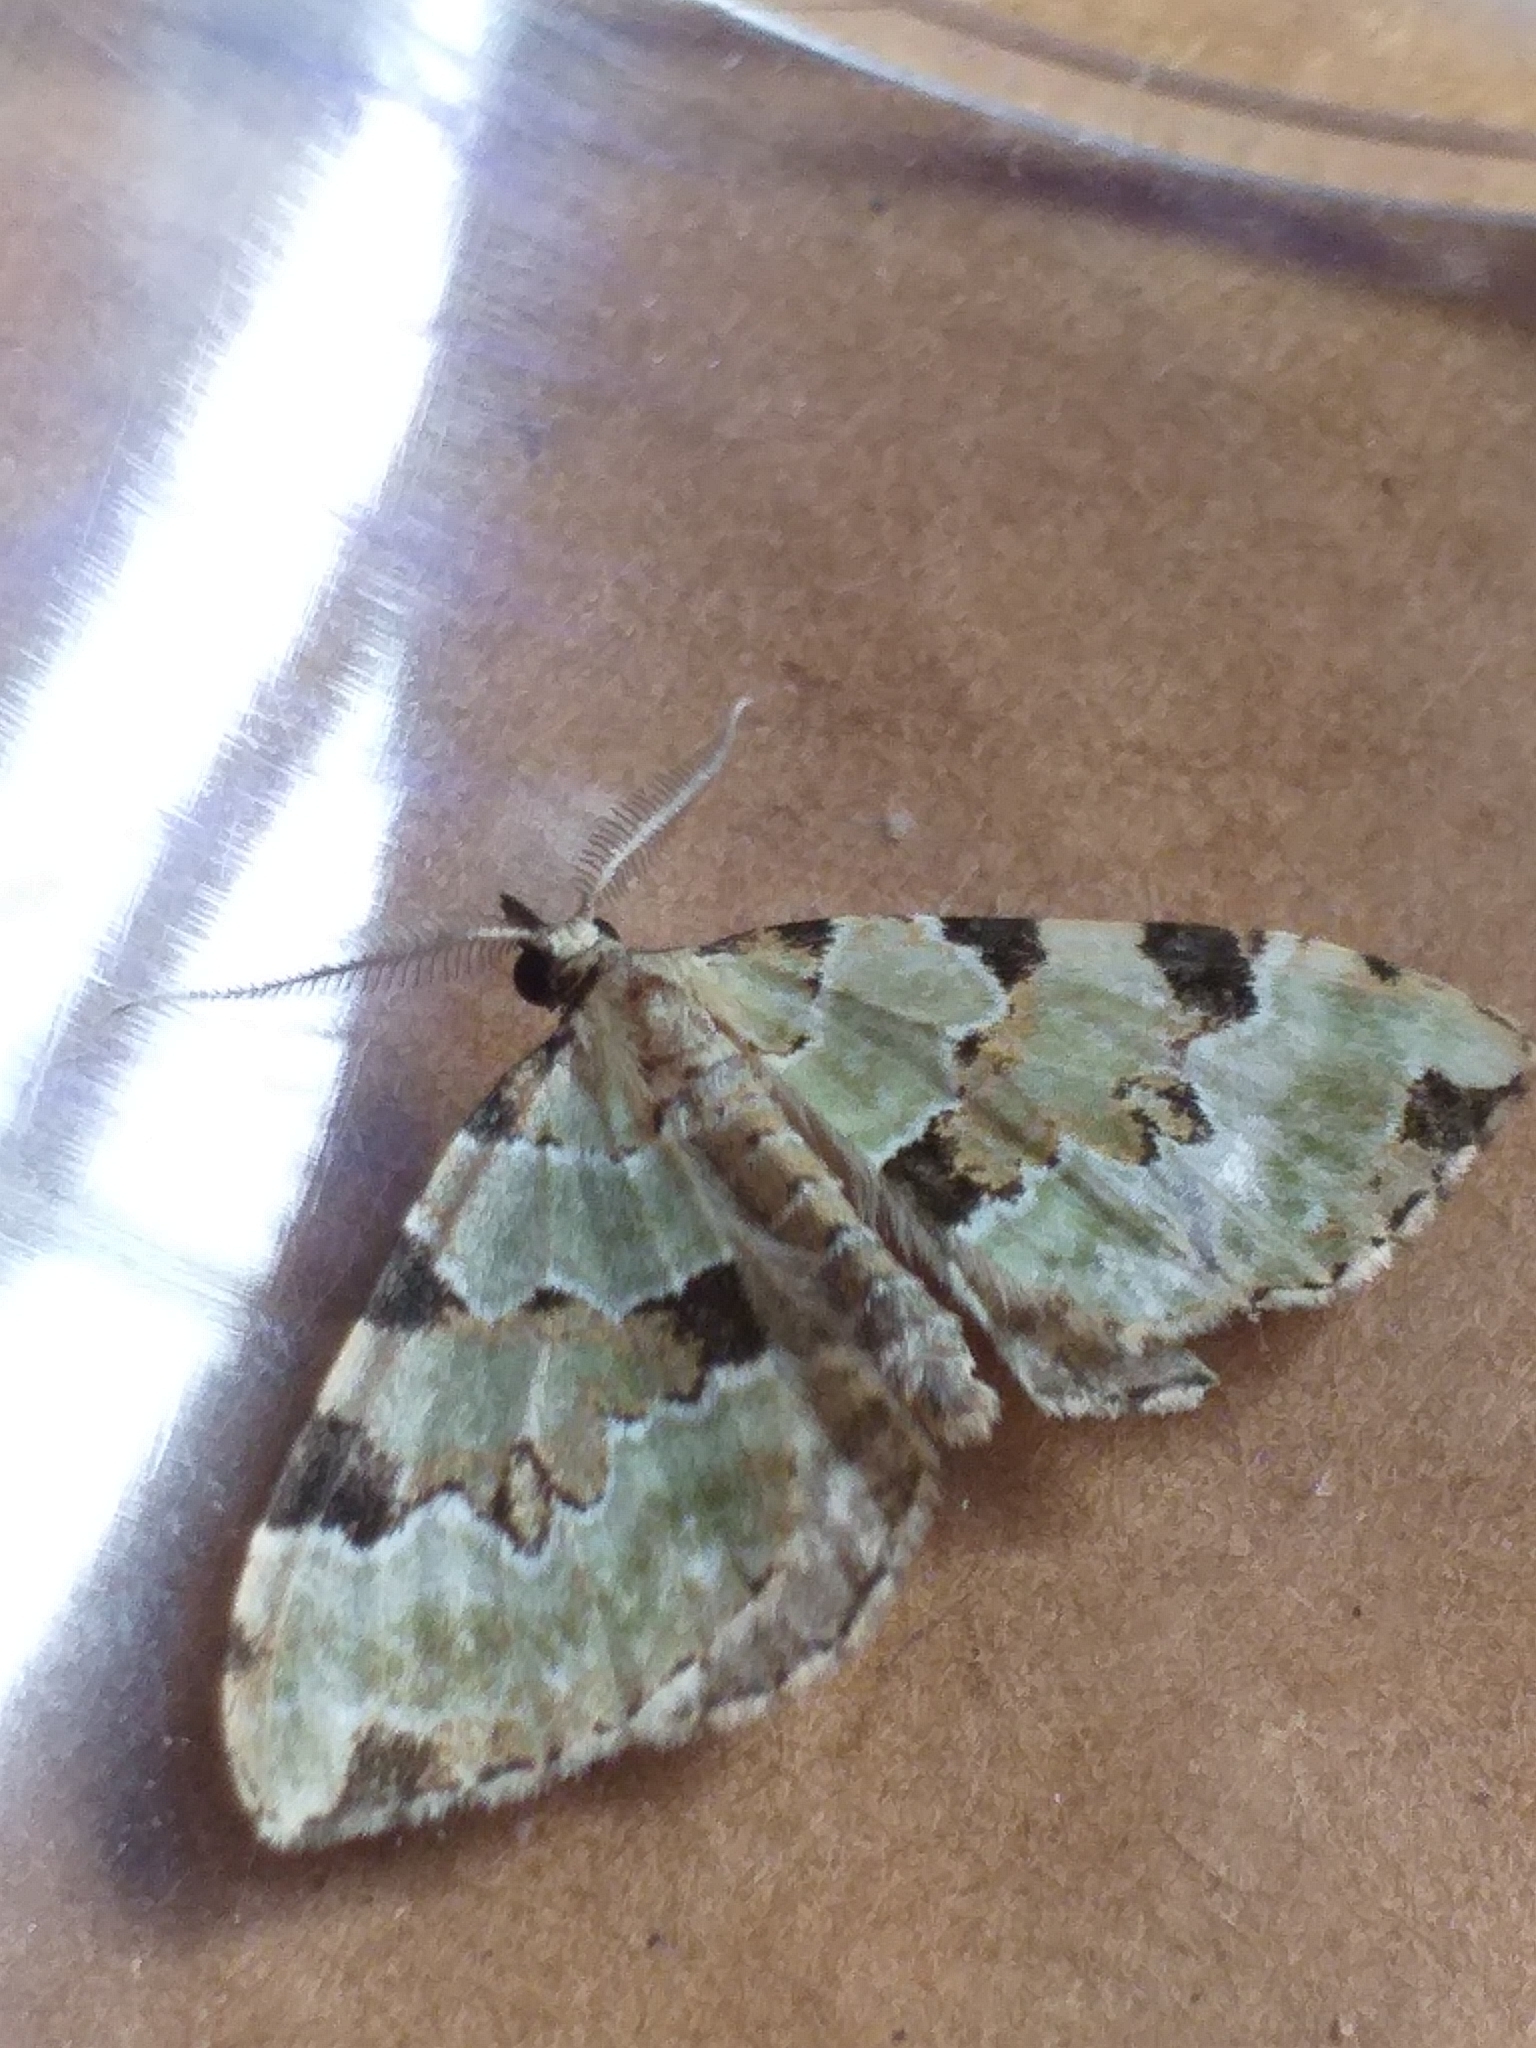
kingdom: Animalia
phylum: Arthropoda
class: Insecta
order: Lepidoptera
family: Geometridae
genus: Colostygia
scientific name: Colostygia pectinataria
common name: Green carpet
